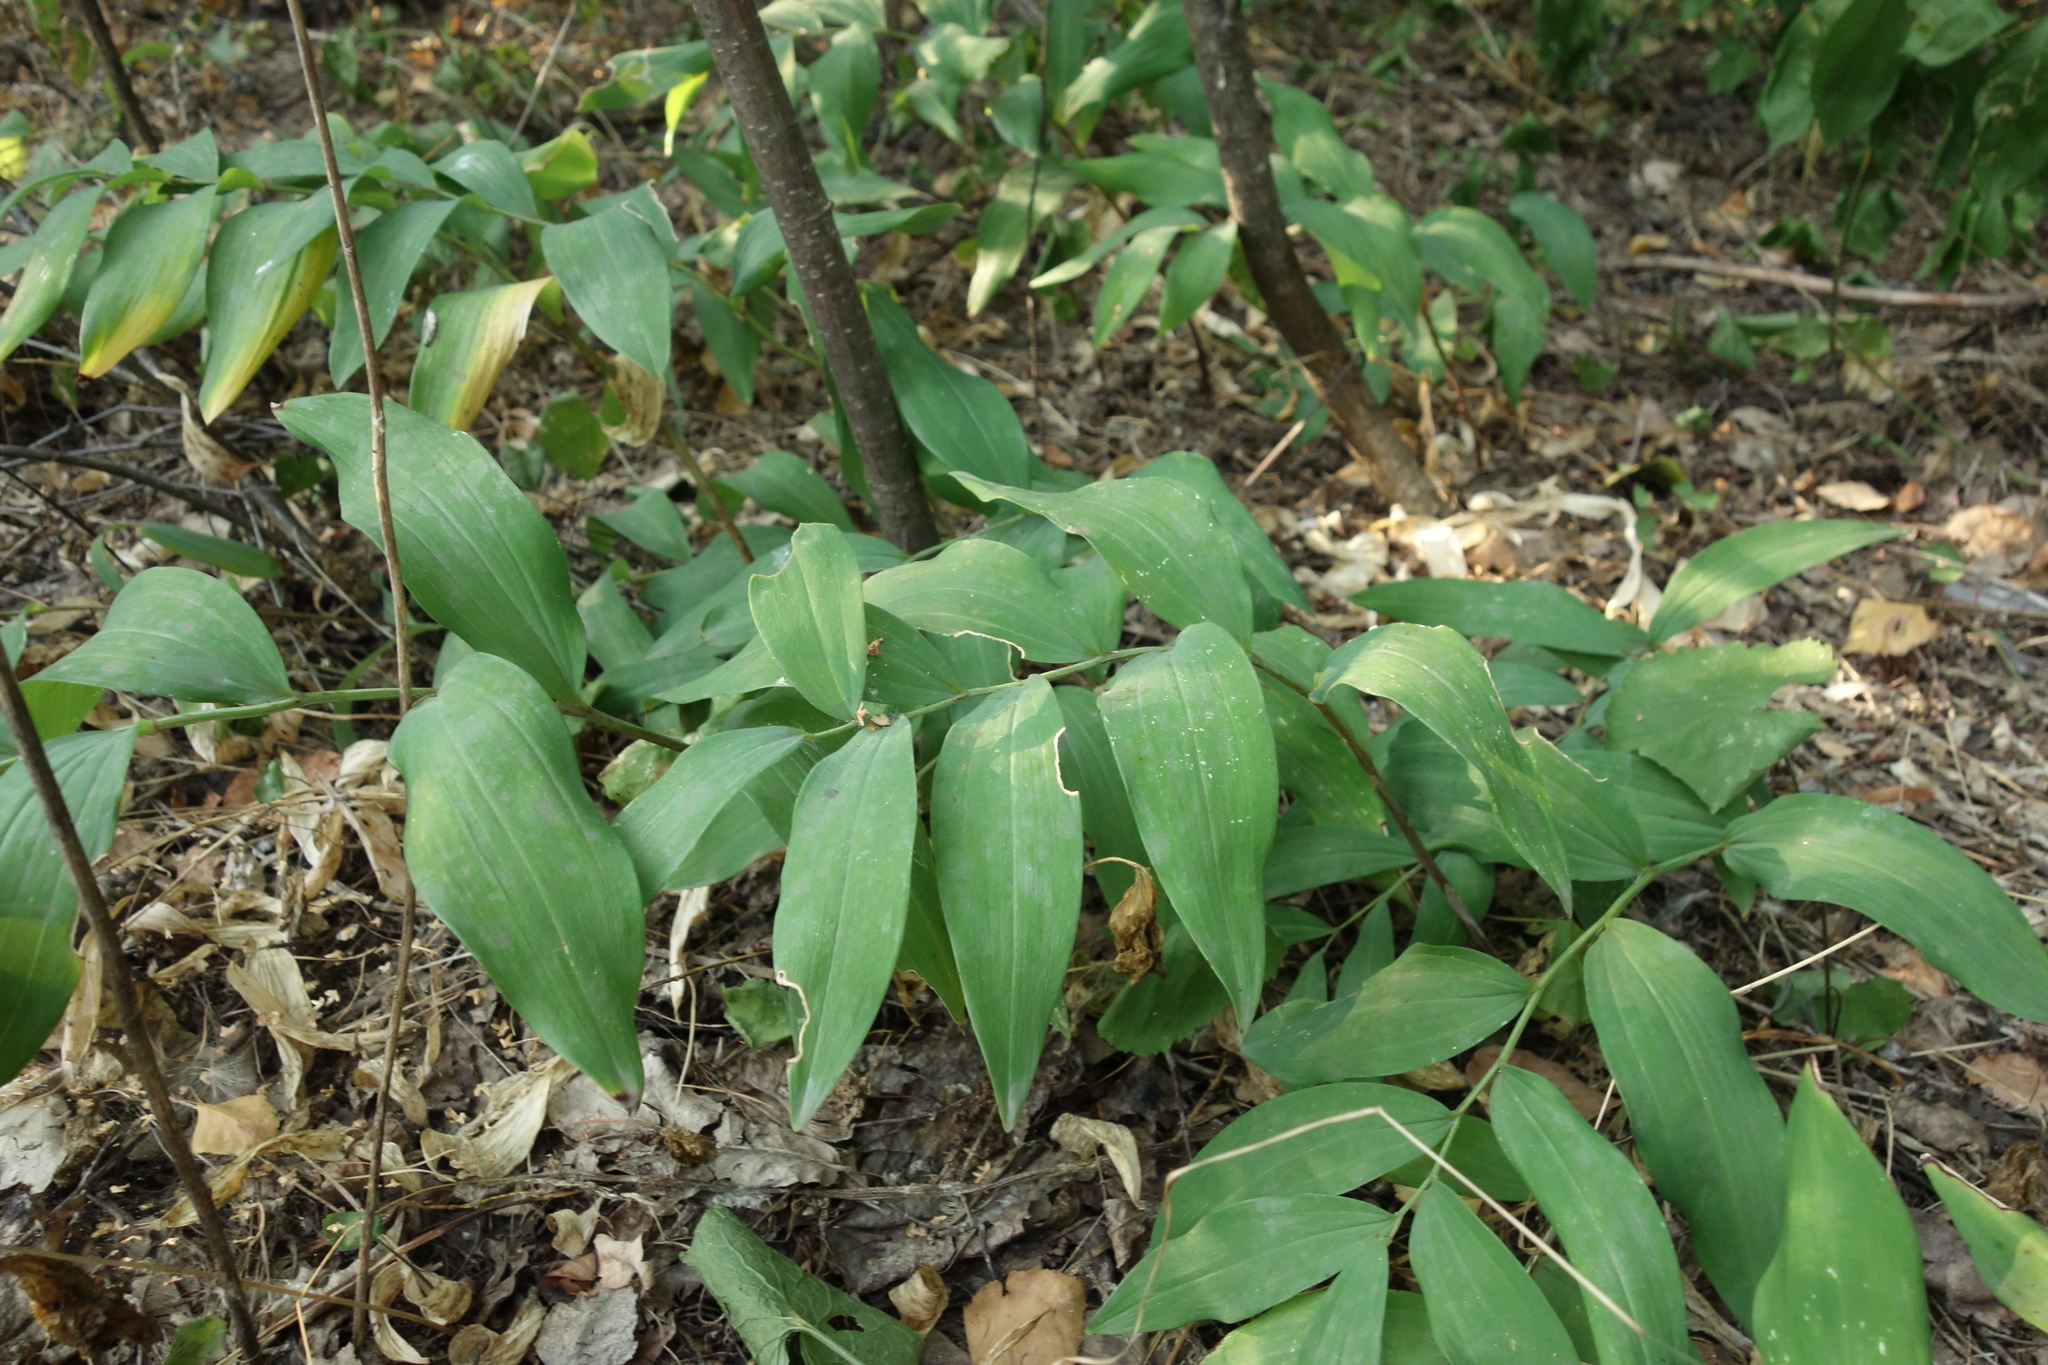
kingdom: Plantae
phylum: Tracheophyta
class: Liliopsida
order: Asparagales
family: Asparagaceae
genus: Polygonatum
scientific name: Polygonatum multiflorum
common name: Solomon's-seal
